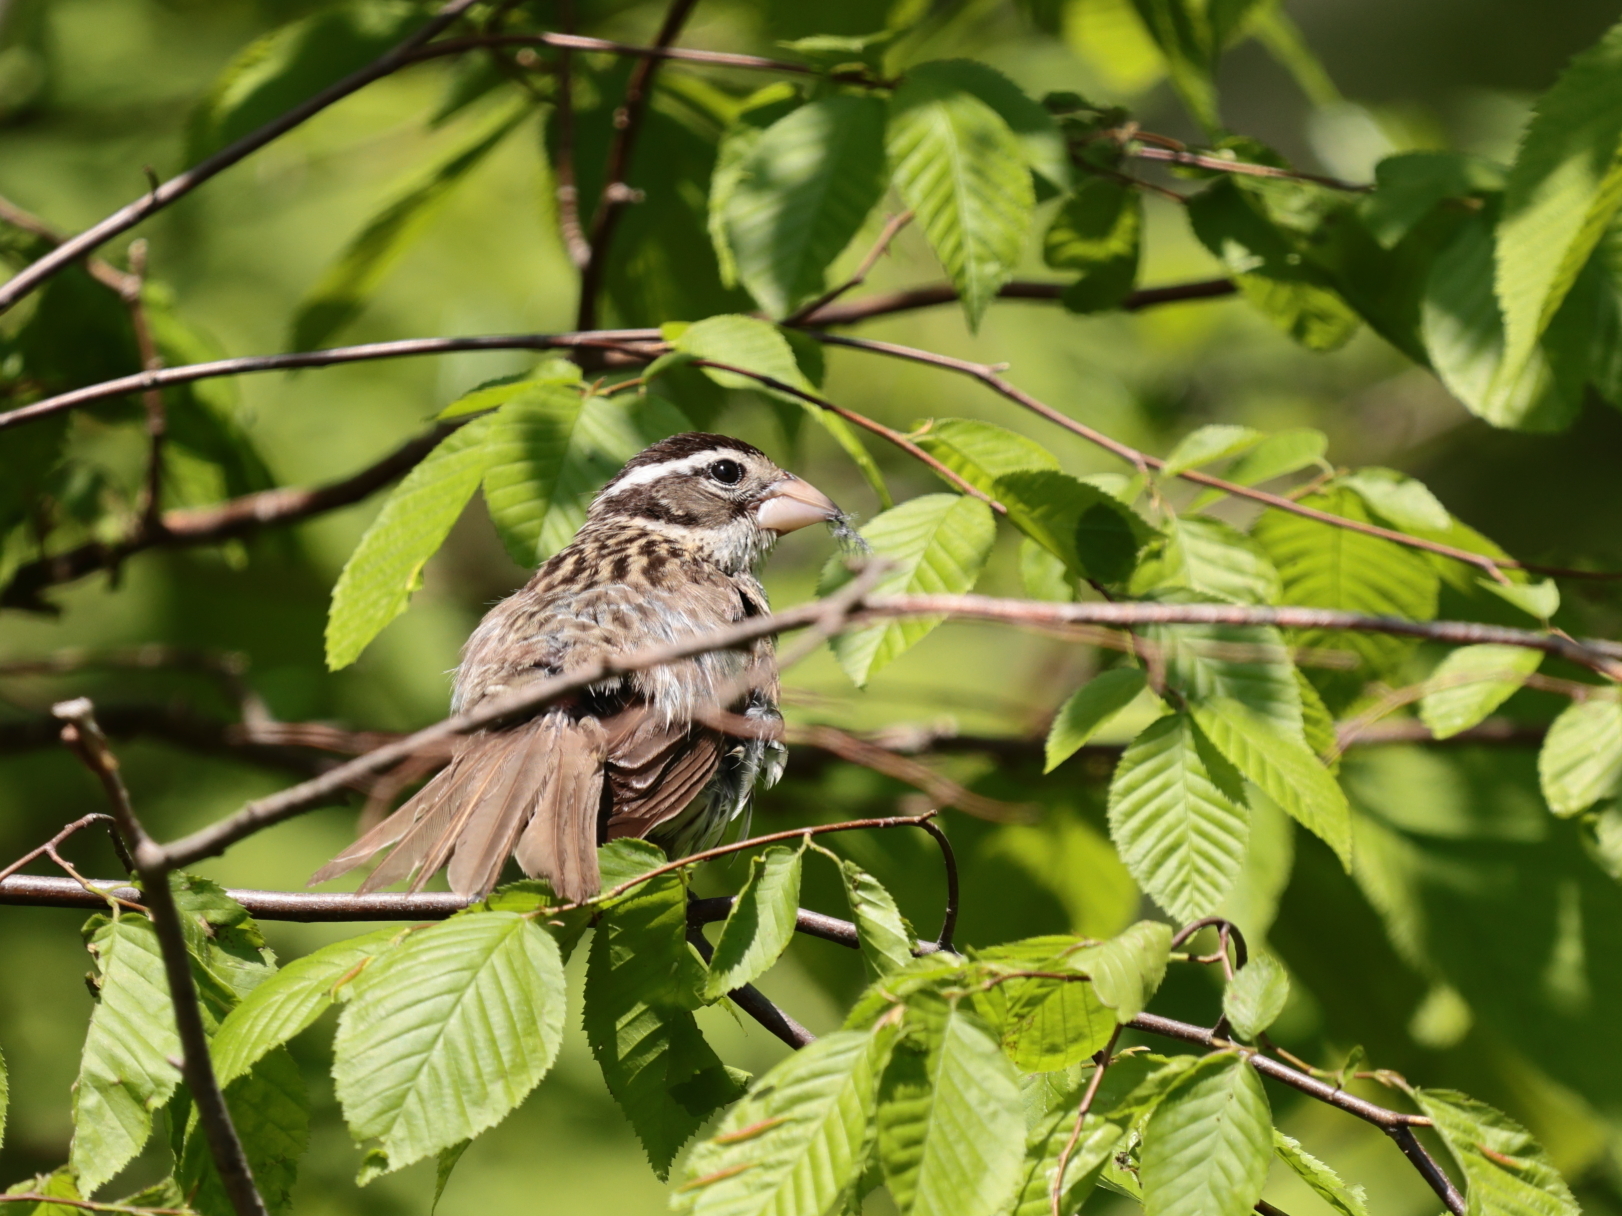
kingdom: Animalia
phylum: Chordata
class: Aves
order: Passeriformes
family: Cardinalidae
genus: Pheucticus
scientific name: Pheucticus ludovicianus
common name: Rose-breasted grosbeak
